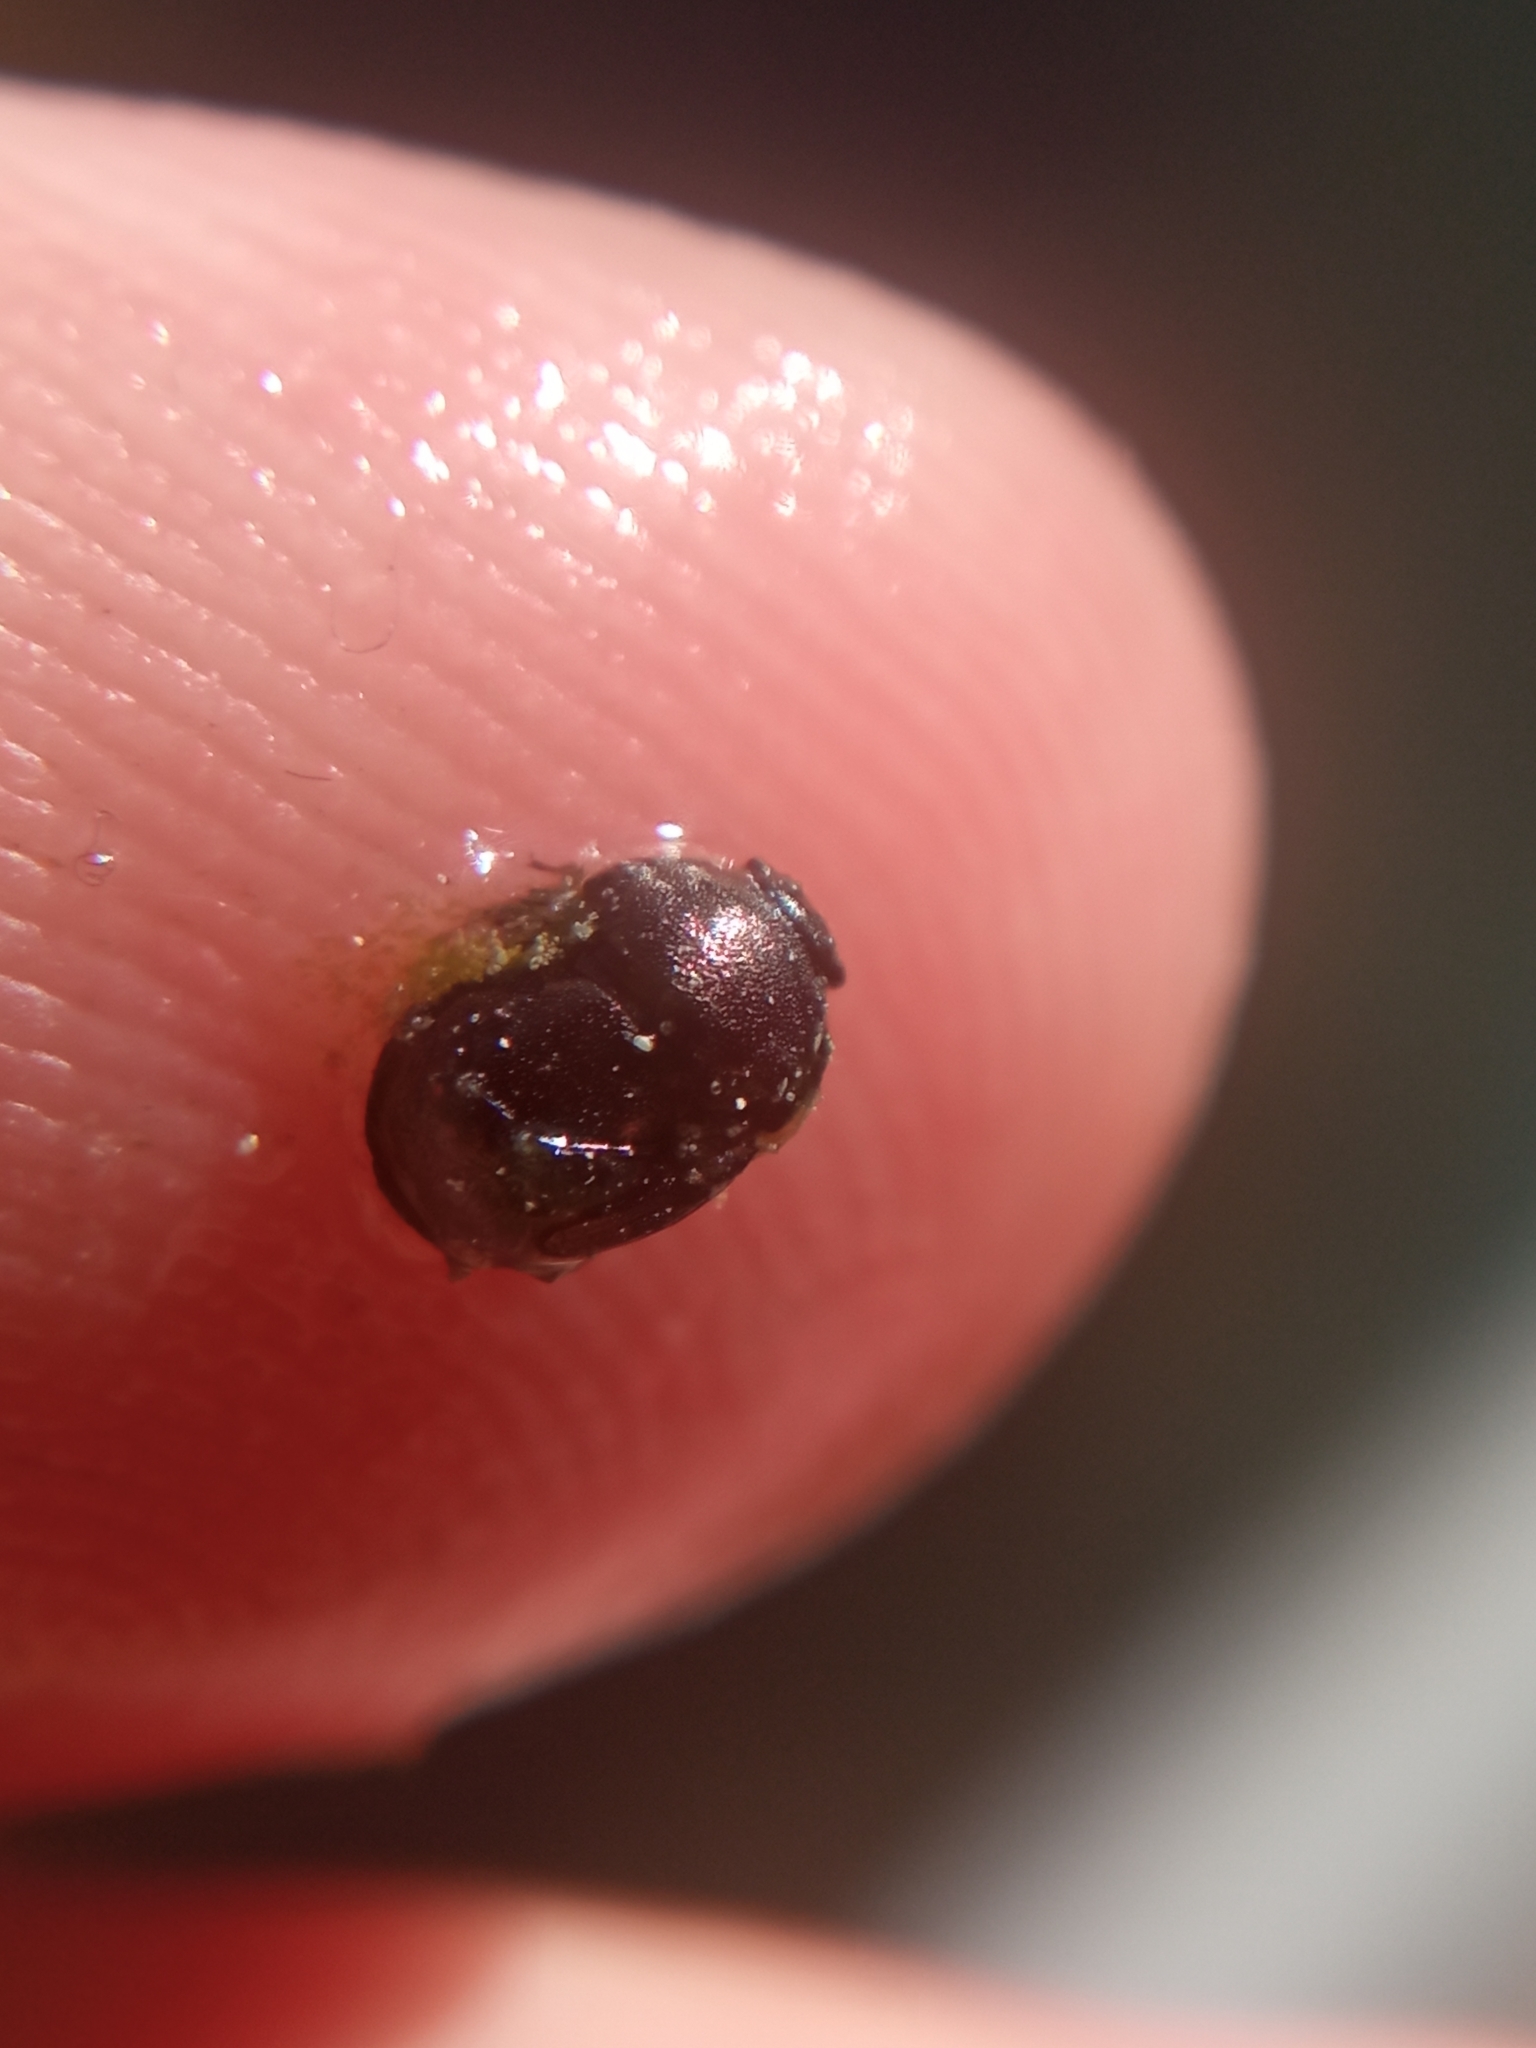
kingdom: Animalia
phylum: Arthropoda
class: Insecta
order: Hemiptera
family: Thyreocoridae
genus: Thyreocoris
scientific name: Thyreocoris scarabaeoides
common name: Negro bug
